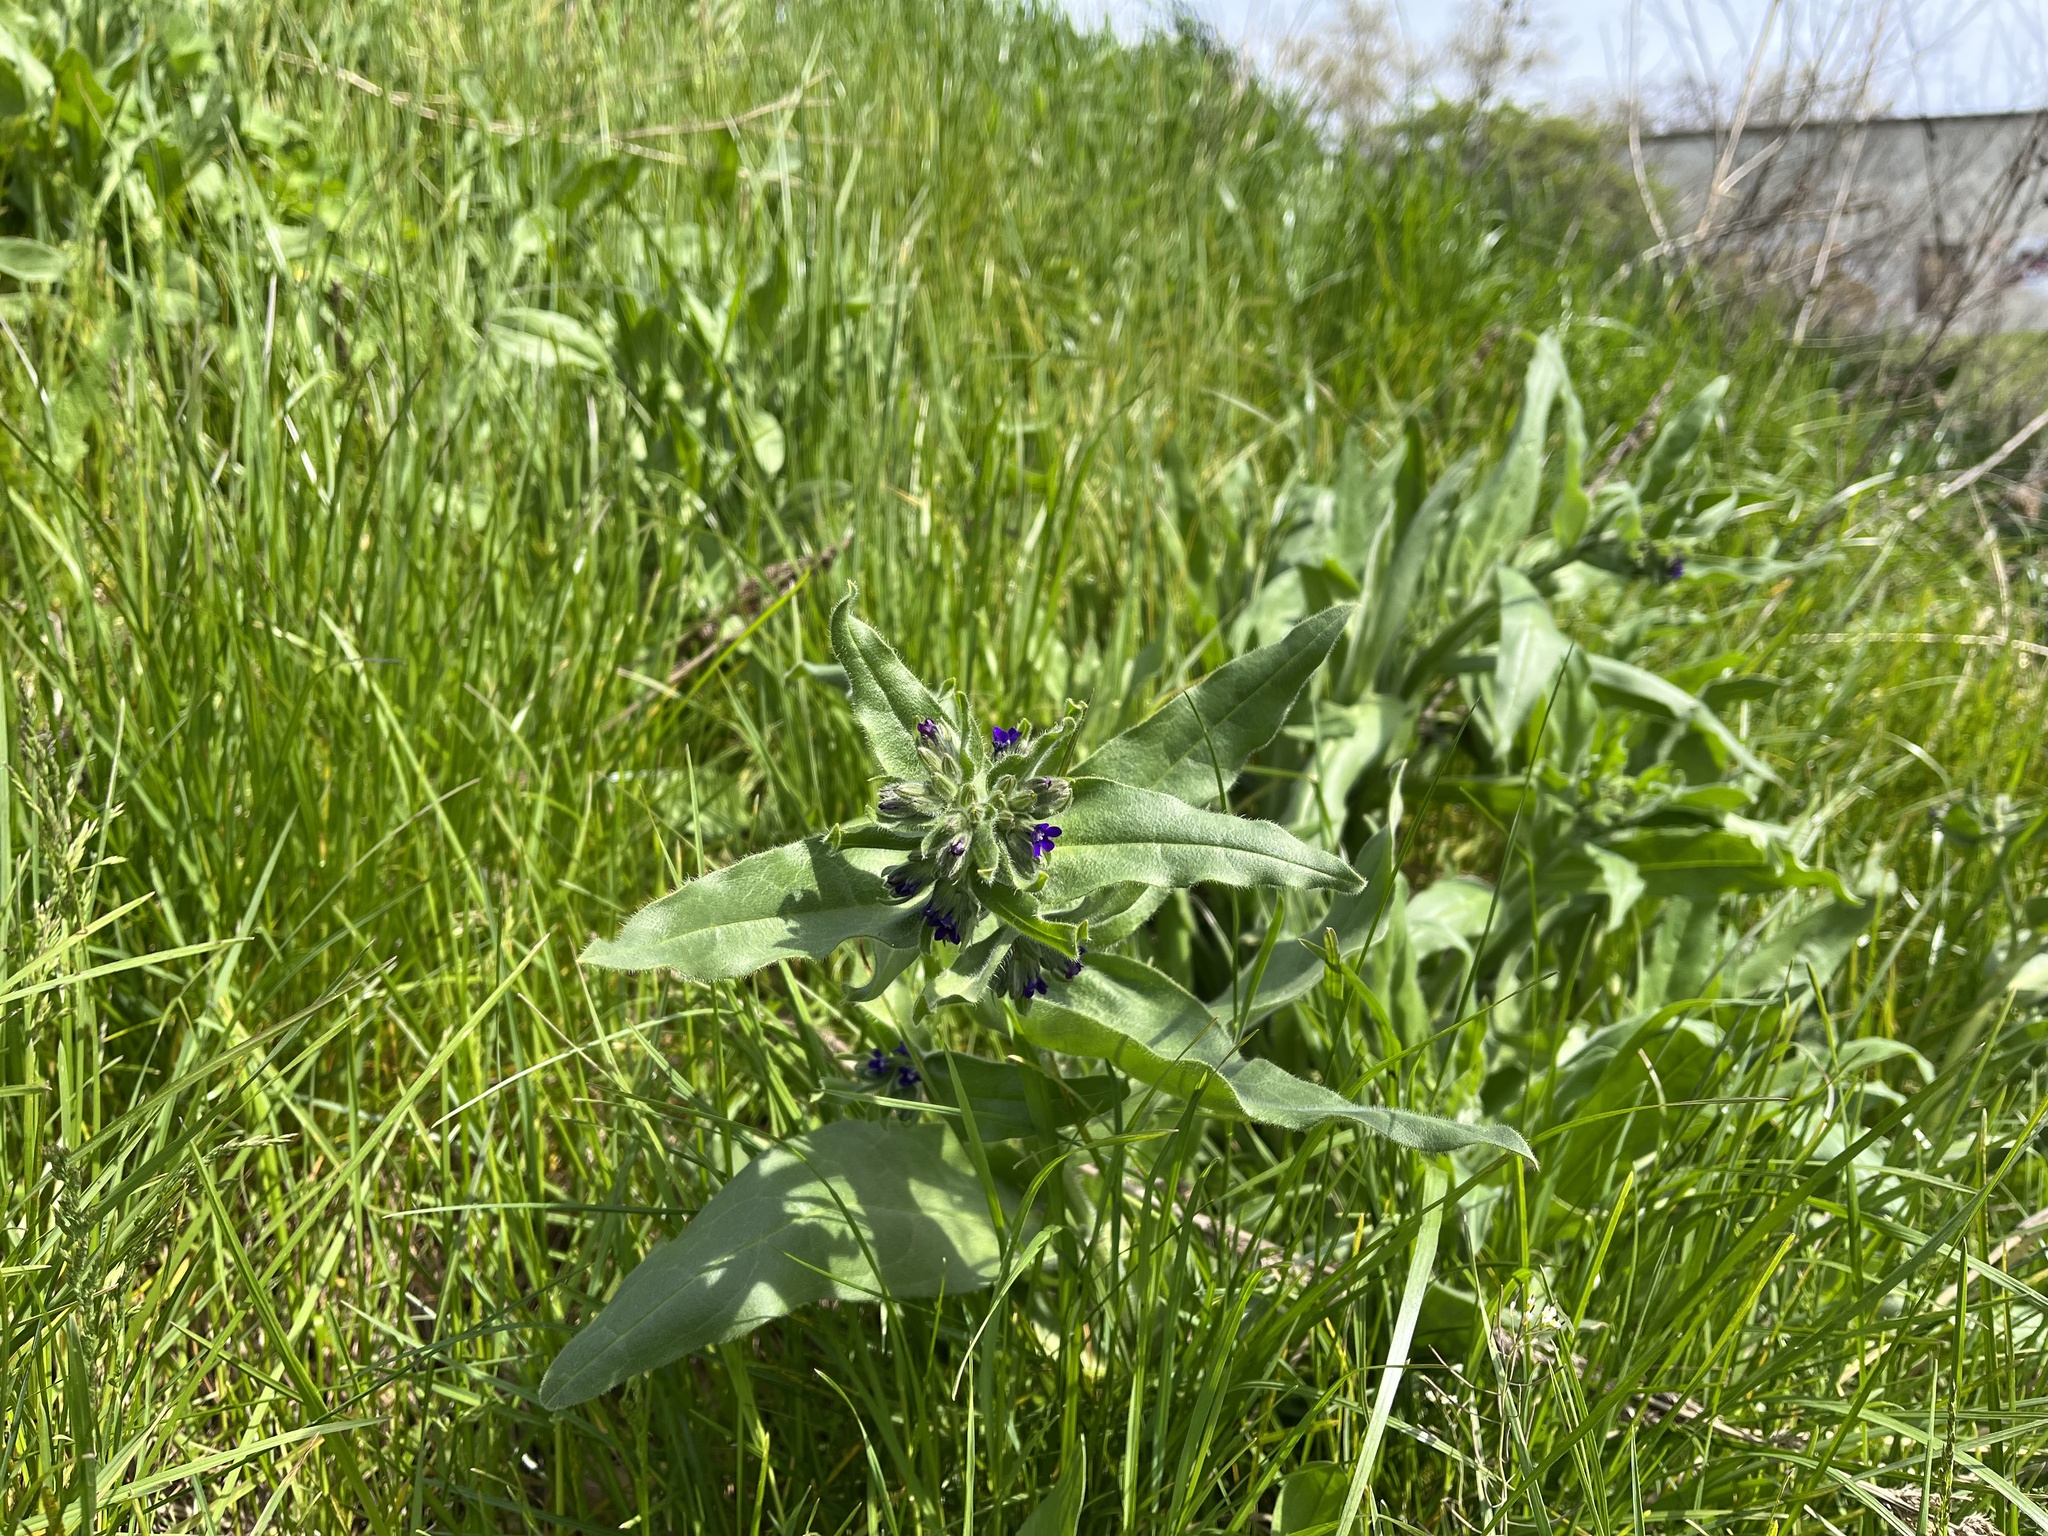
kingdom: Plantae
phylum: Tracheophyta
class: Magnoliopsida
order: Boraginales
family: Boraginaceae
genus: Anchusa
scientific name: Anchusa officinalis
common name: Alkanet
